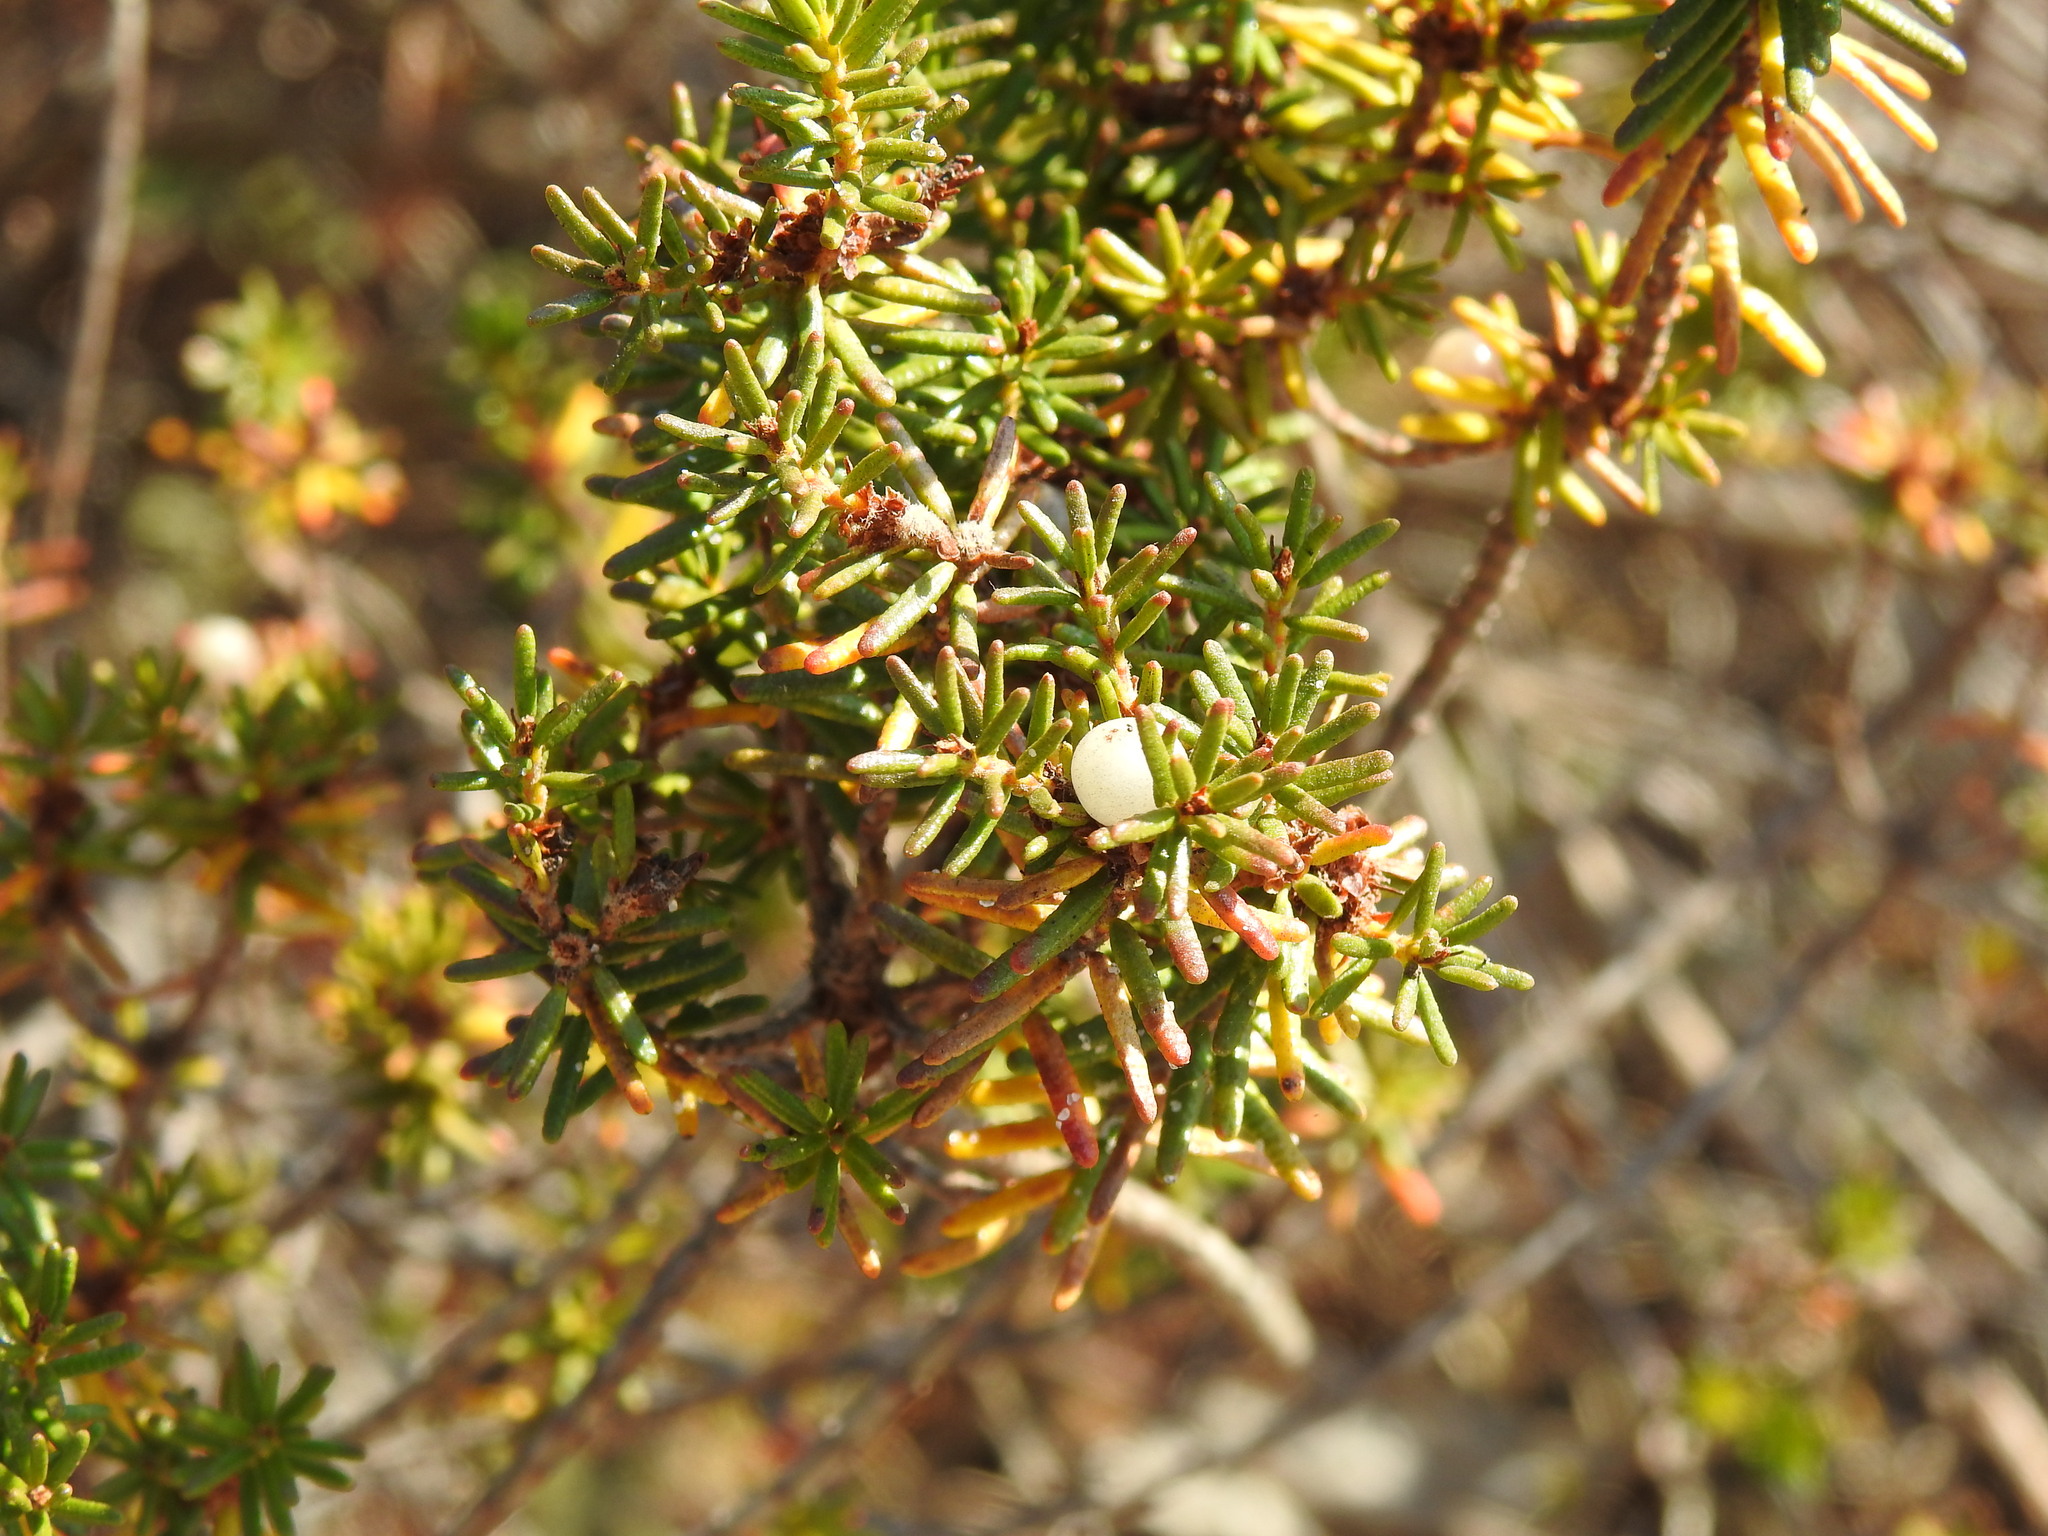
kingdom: Plantae
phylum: Tracheophyta
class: Magnoliopsida
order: Ericales
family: Ericaceae
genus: Corema
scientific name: Corema album
